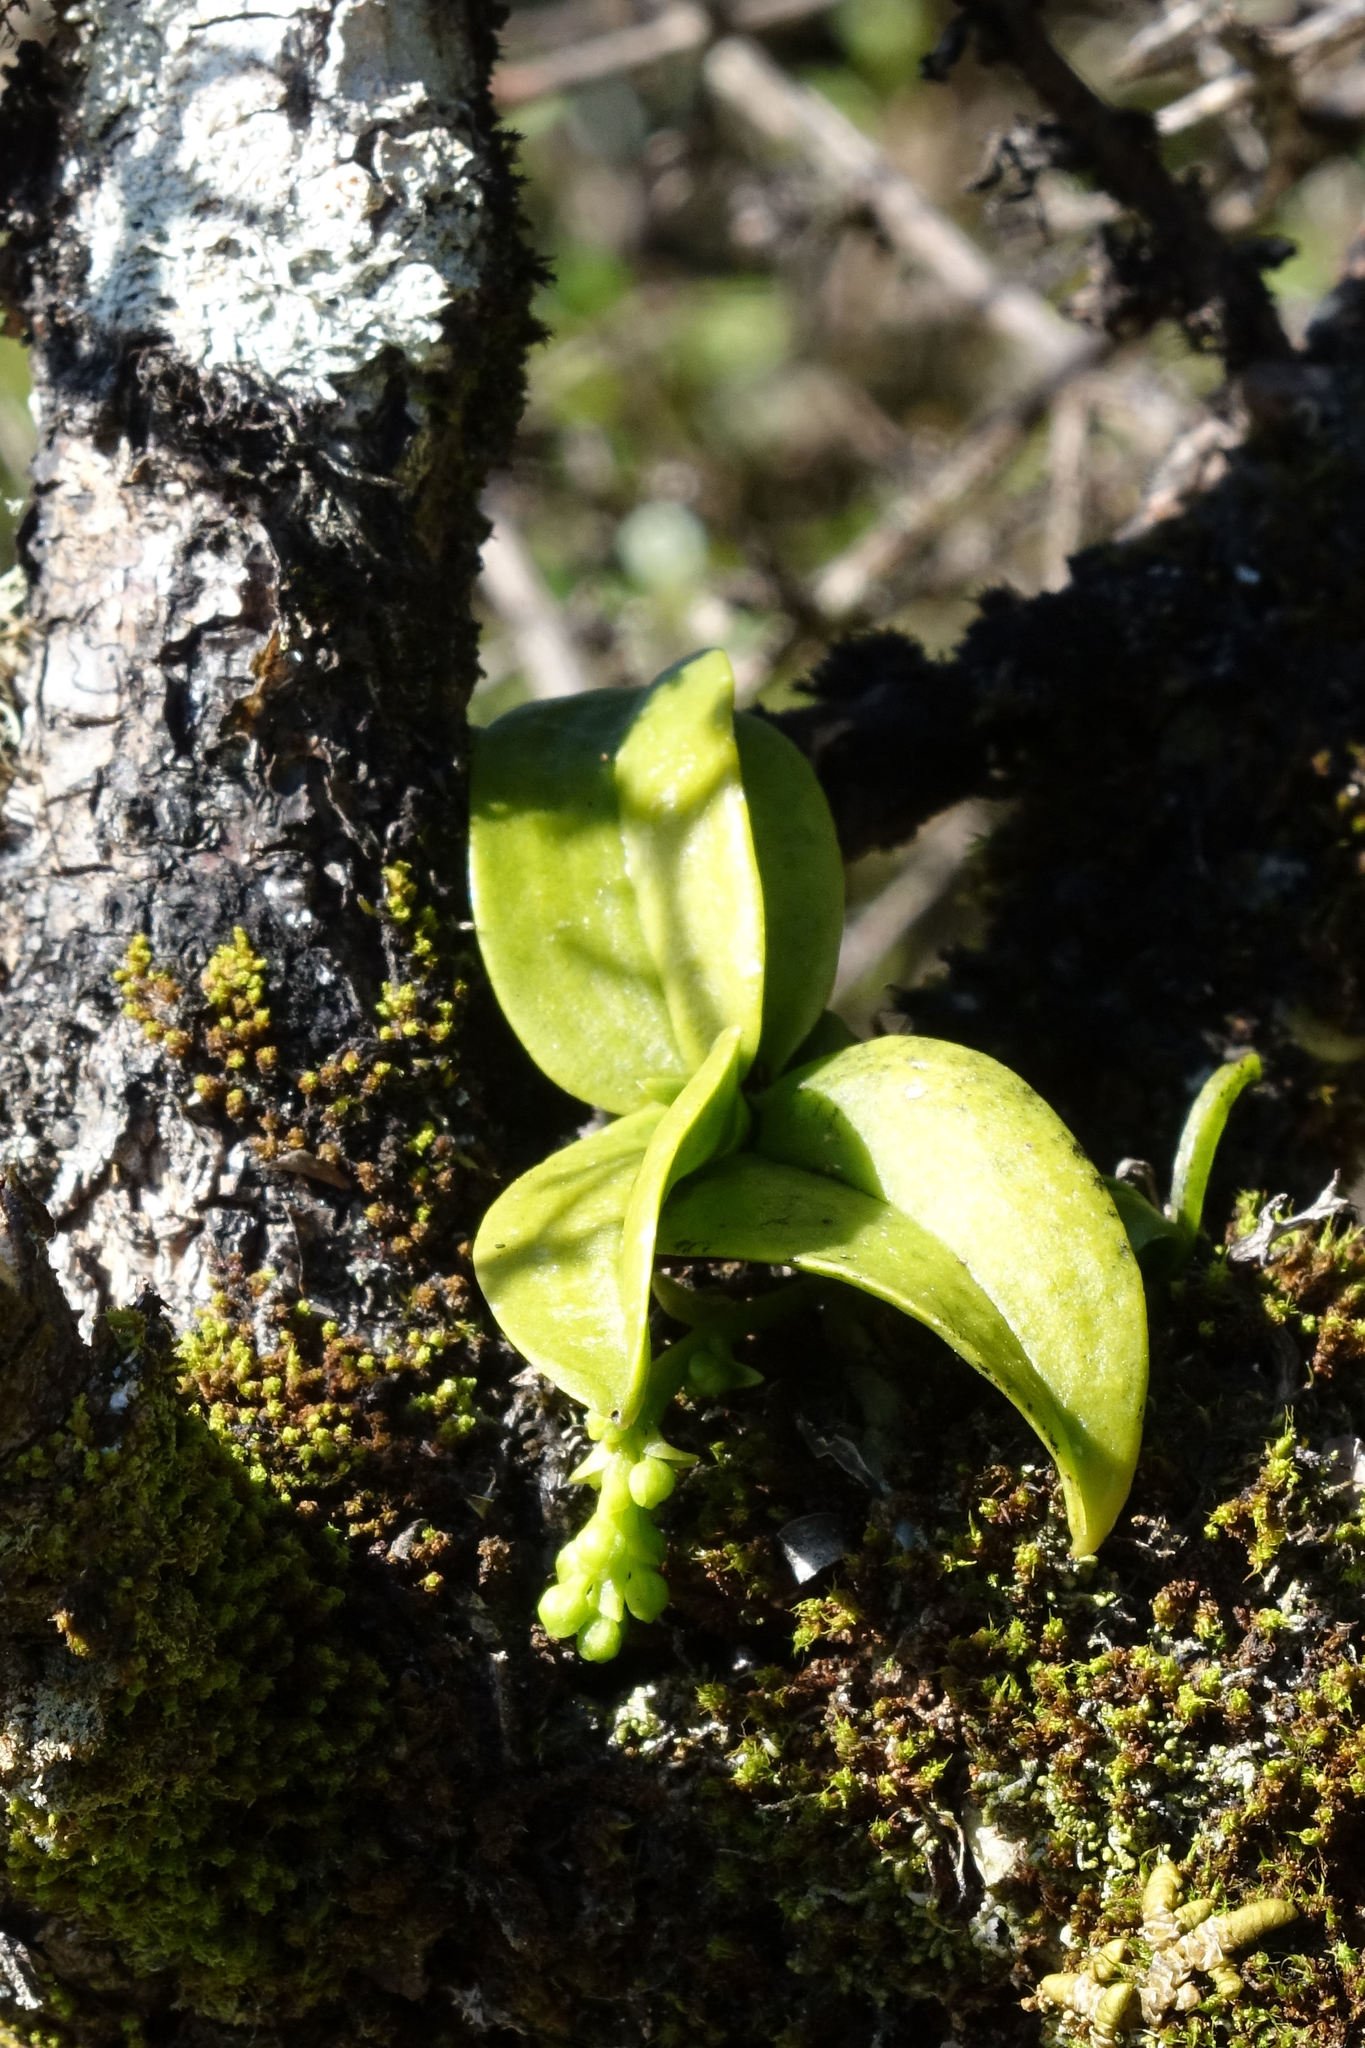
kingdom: Plantae
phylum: Tracheophyta
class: Liliopsida
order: Asparagales
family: Orchidaceae
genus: Drymoanthus
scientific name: Drymoanthus adversus
